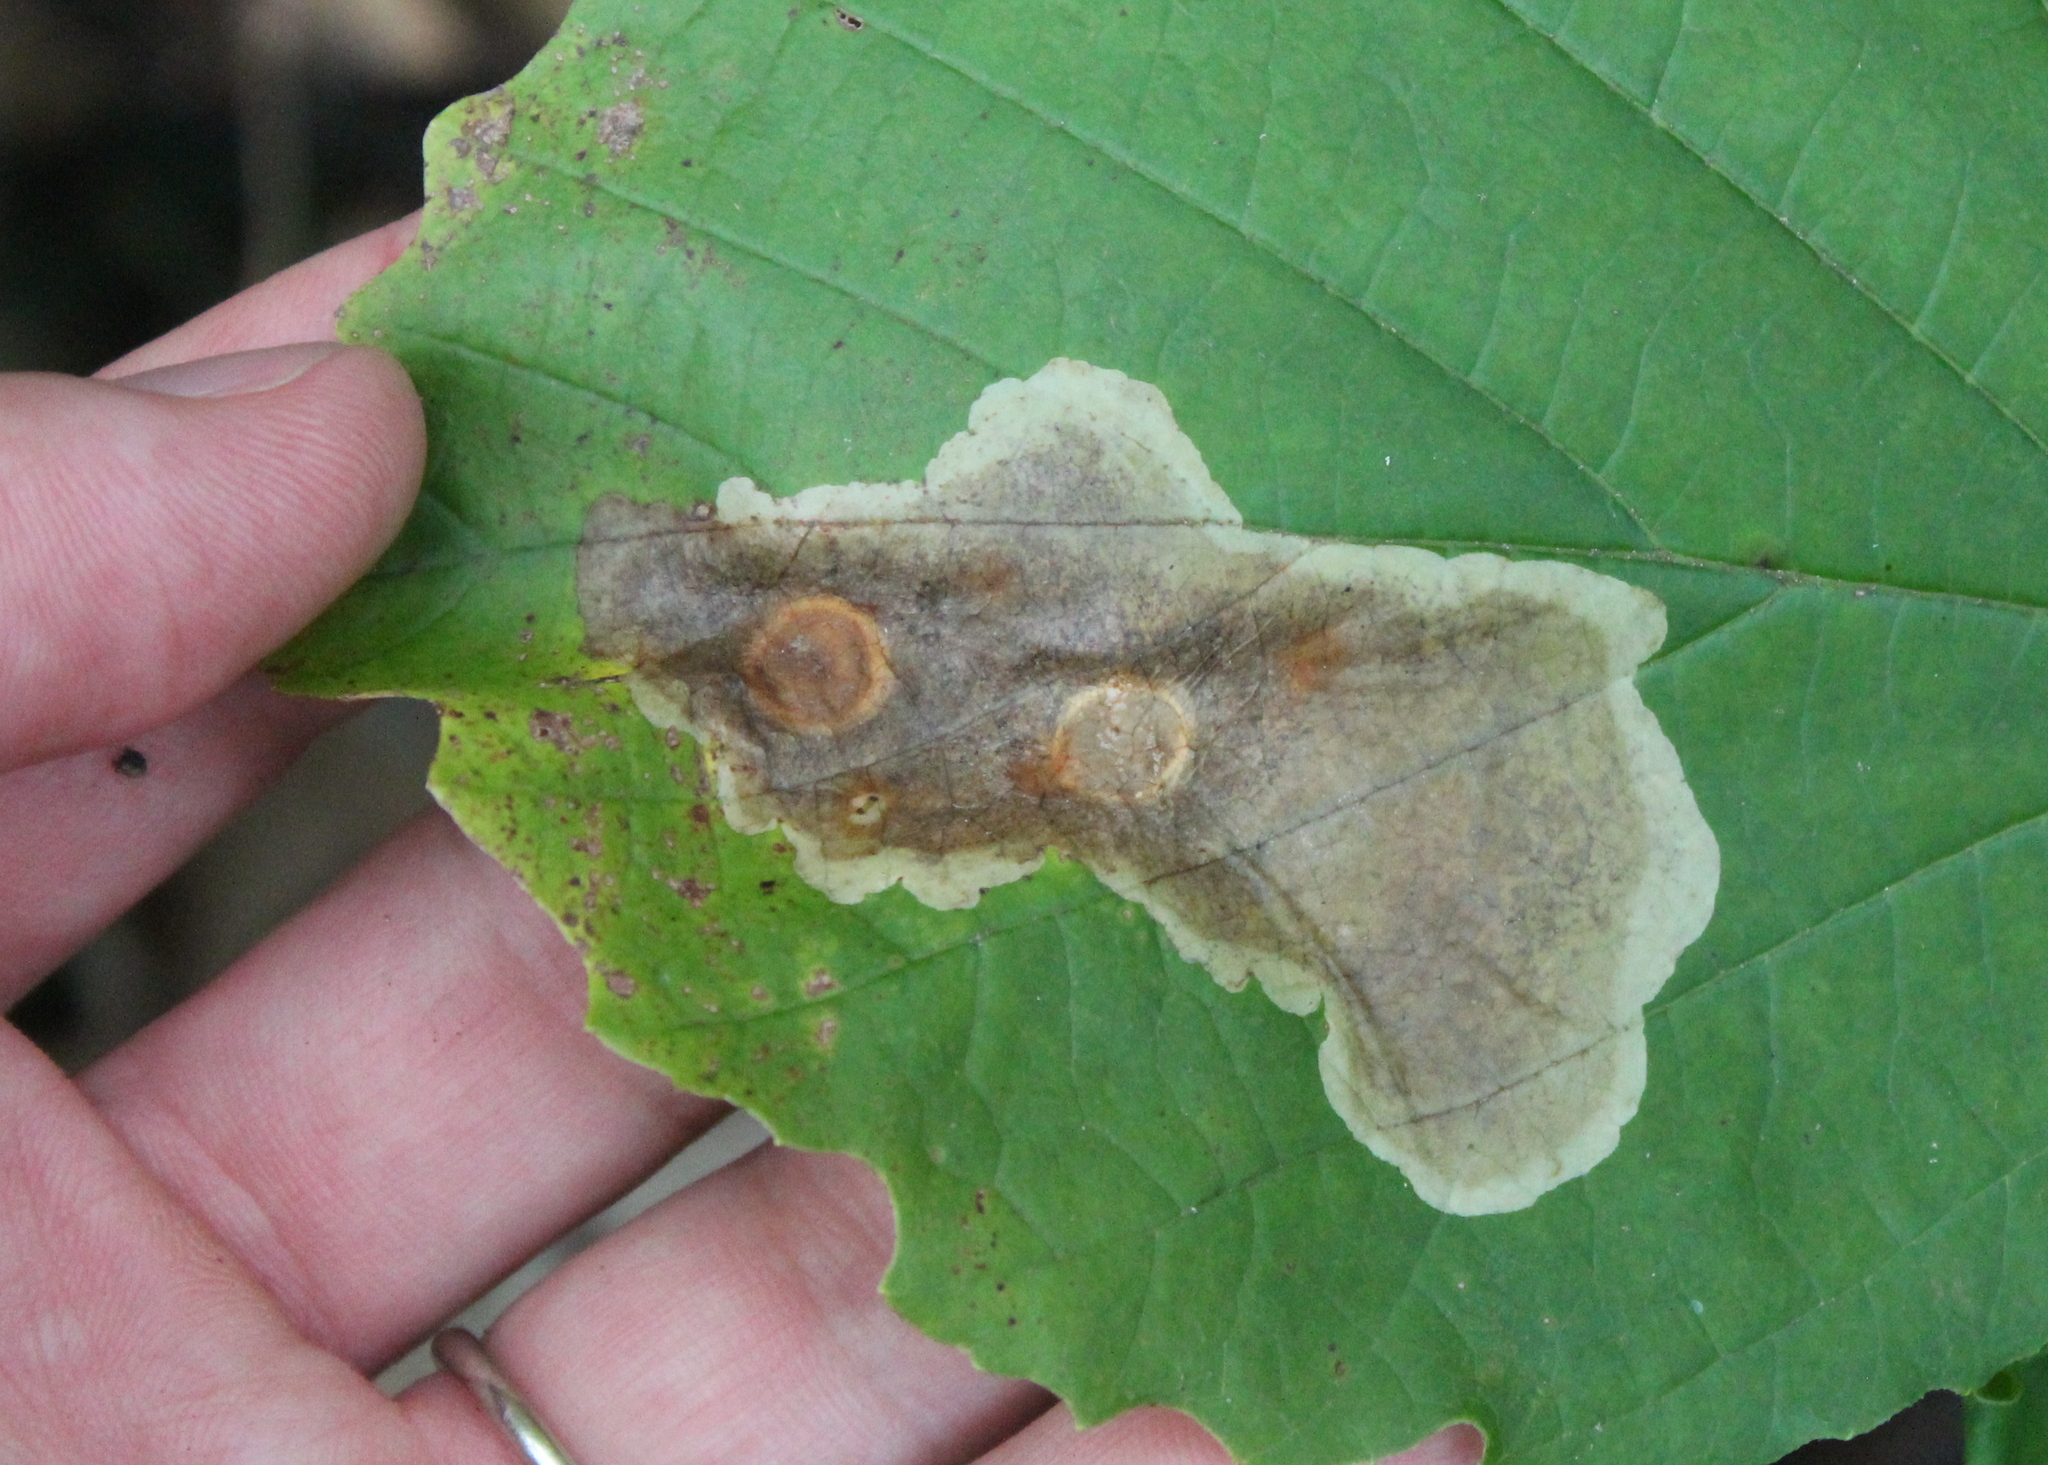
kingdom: Animalia
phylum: Arthropoda
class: Insecta
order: Lepidoptera
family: Gracillariidae
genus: Cameraria
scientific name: Cameraria hamameliella
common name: Witchhazel leafminer
